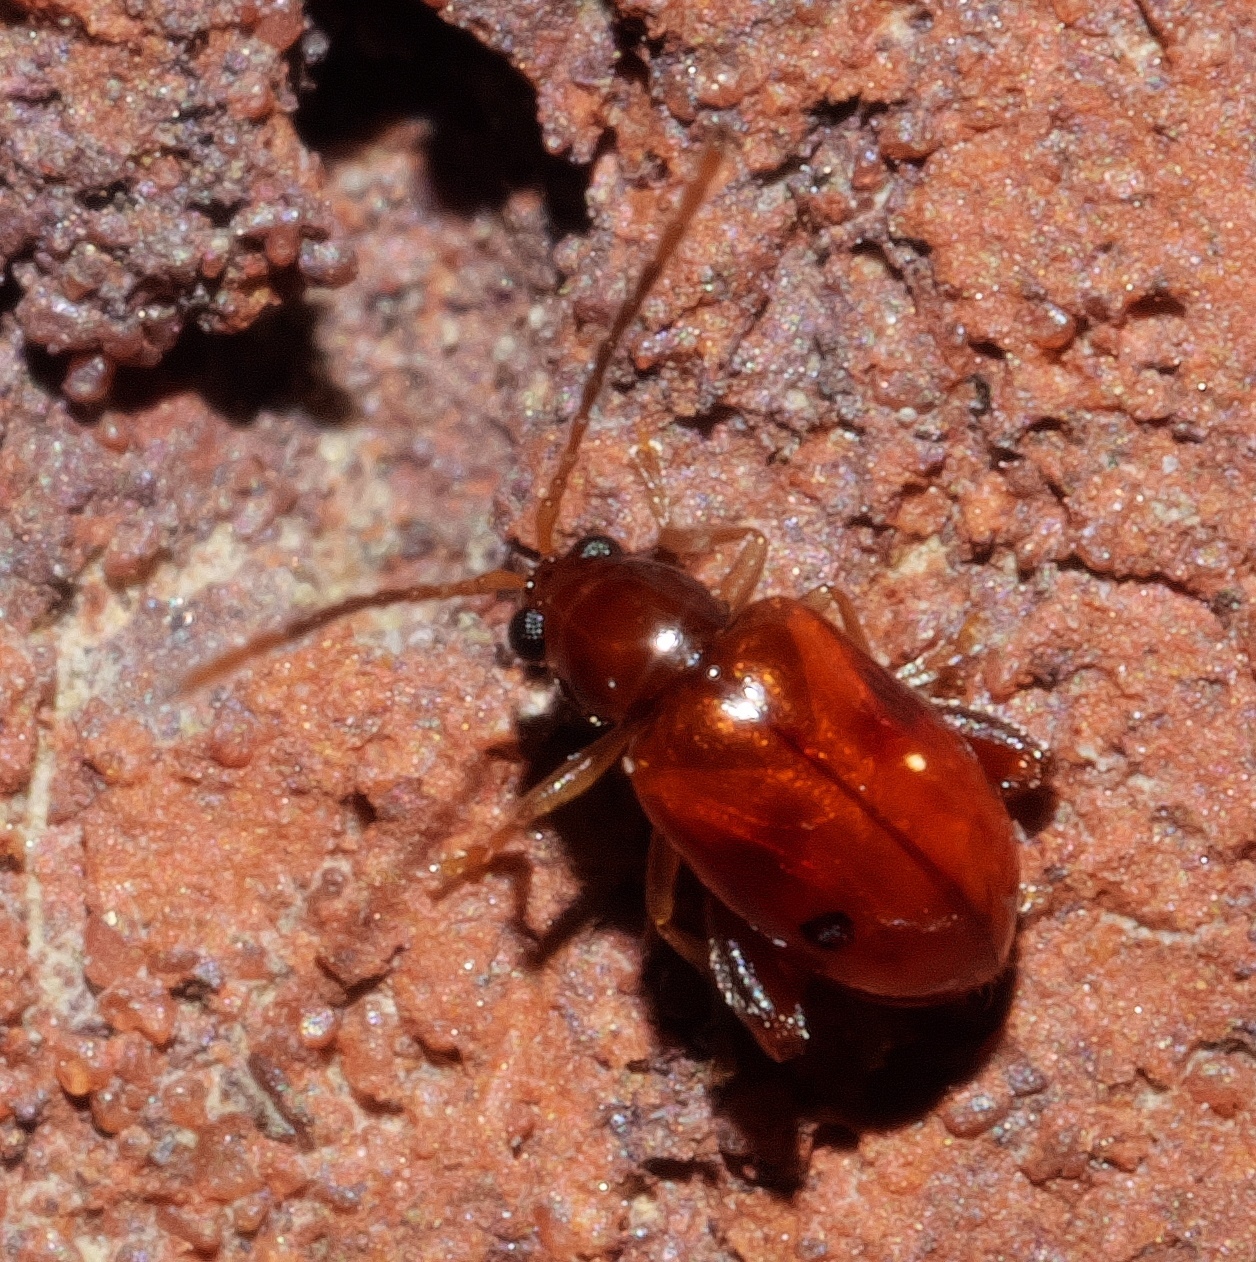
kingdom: Animalia
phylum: Arthropoda
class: Insecta
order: Coleoptera
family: Chrysomelidae
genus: Longitarsus
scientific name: Longitarsus varicornis
